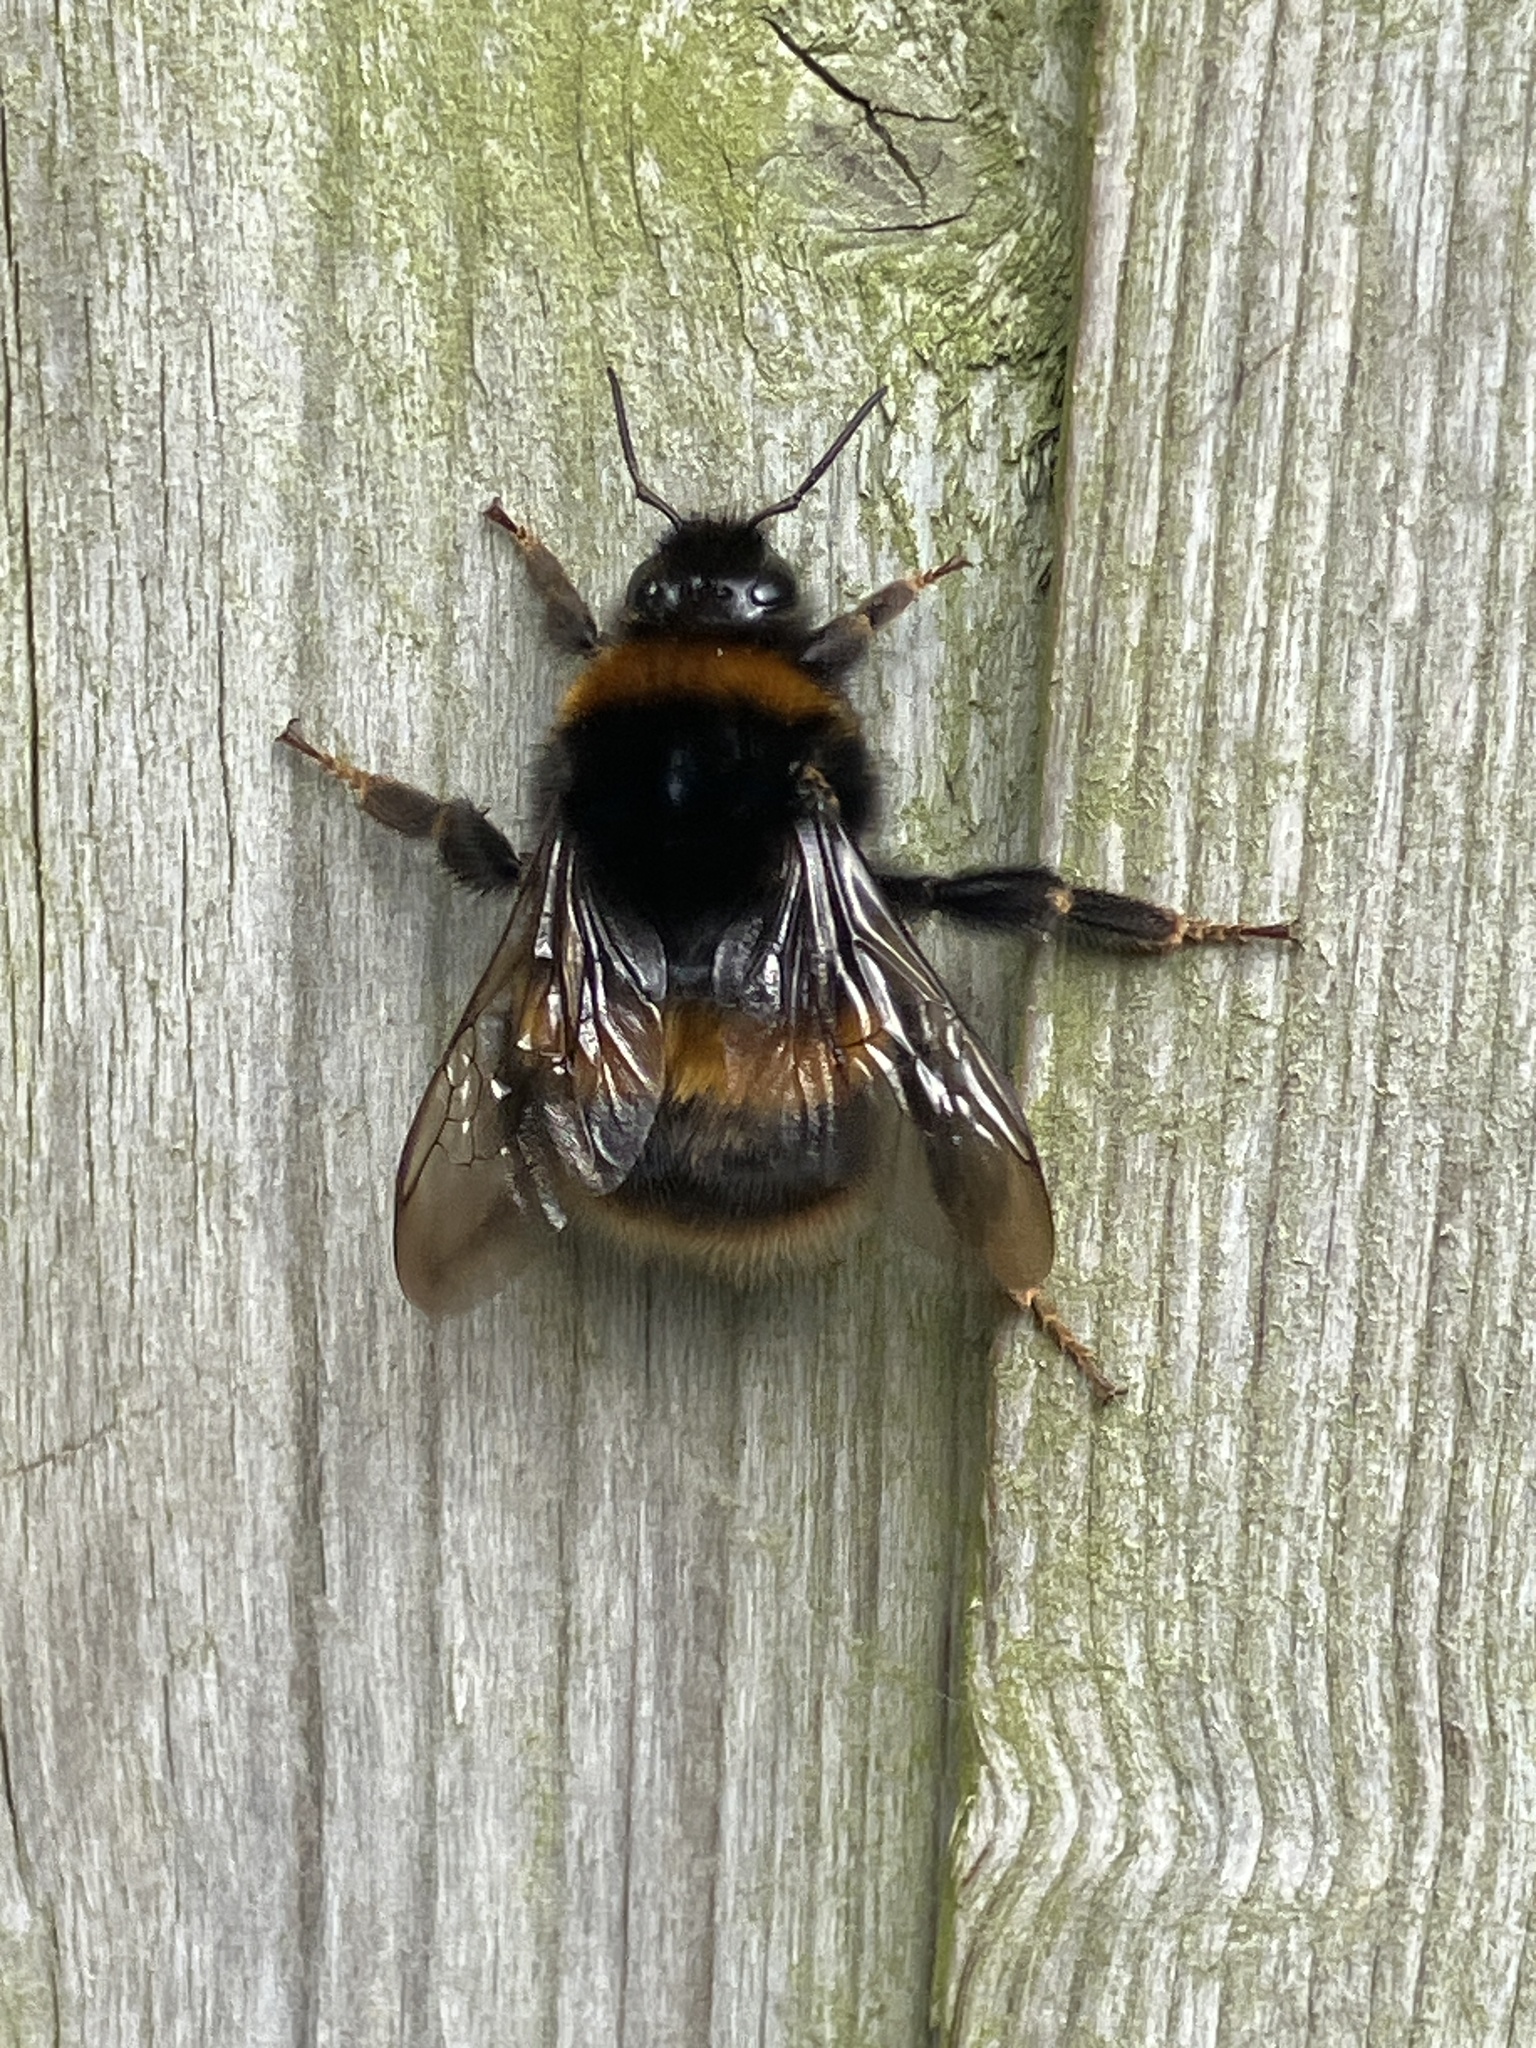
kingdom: Animalia
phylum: Arthropoda
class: Insecta
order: Hymenoptera
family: Apidae
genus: Bombus
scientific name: Bombus terrestris
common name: Buff-tailed bumblebee
